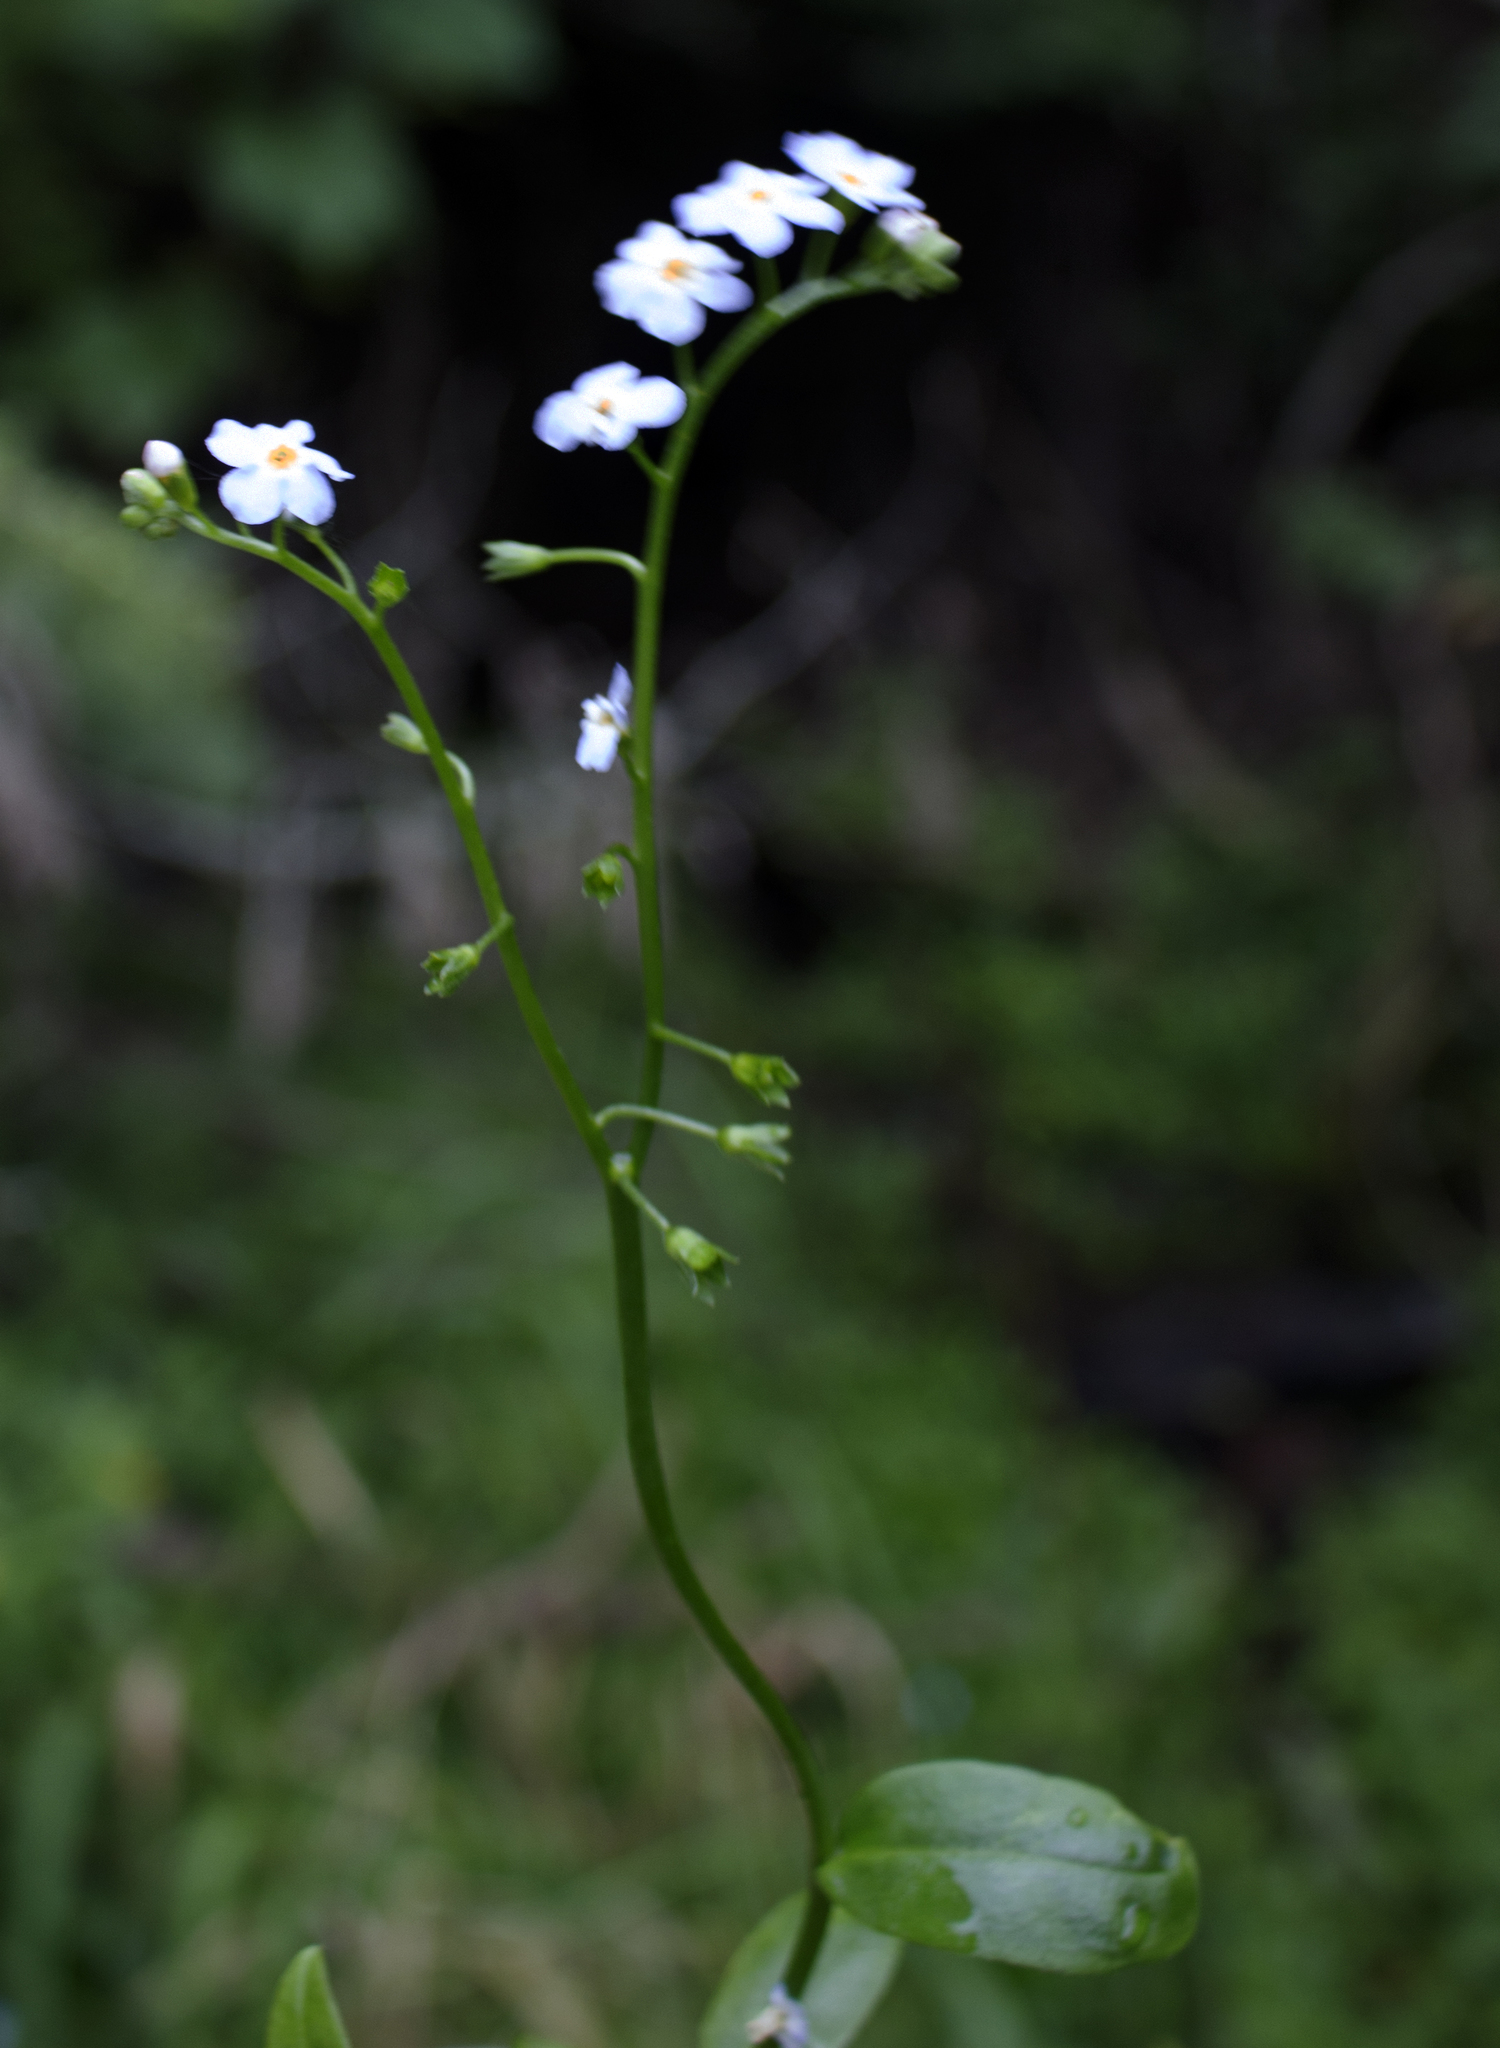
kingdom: Plantae
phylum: Tracheophyta
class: Magnoliopsida
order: Boraginales
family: Boraginaceae
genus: Myosotis
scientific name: Myosotis scorpioides
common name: Water forget-me-not
